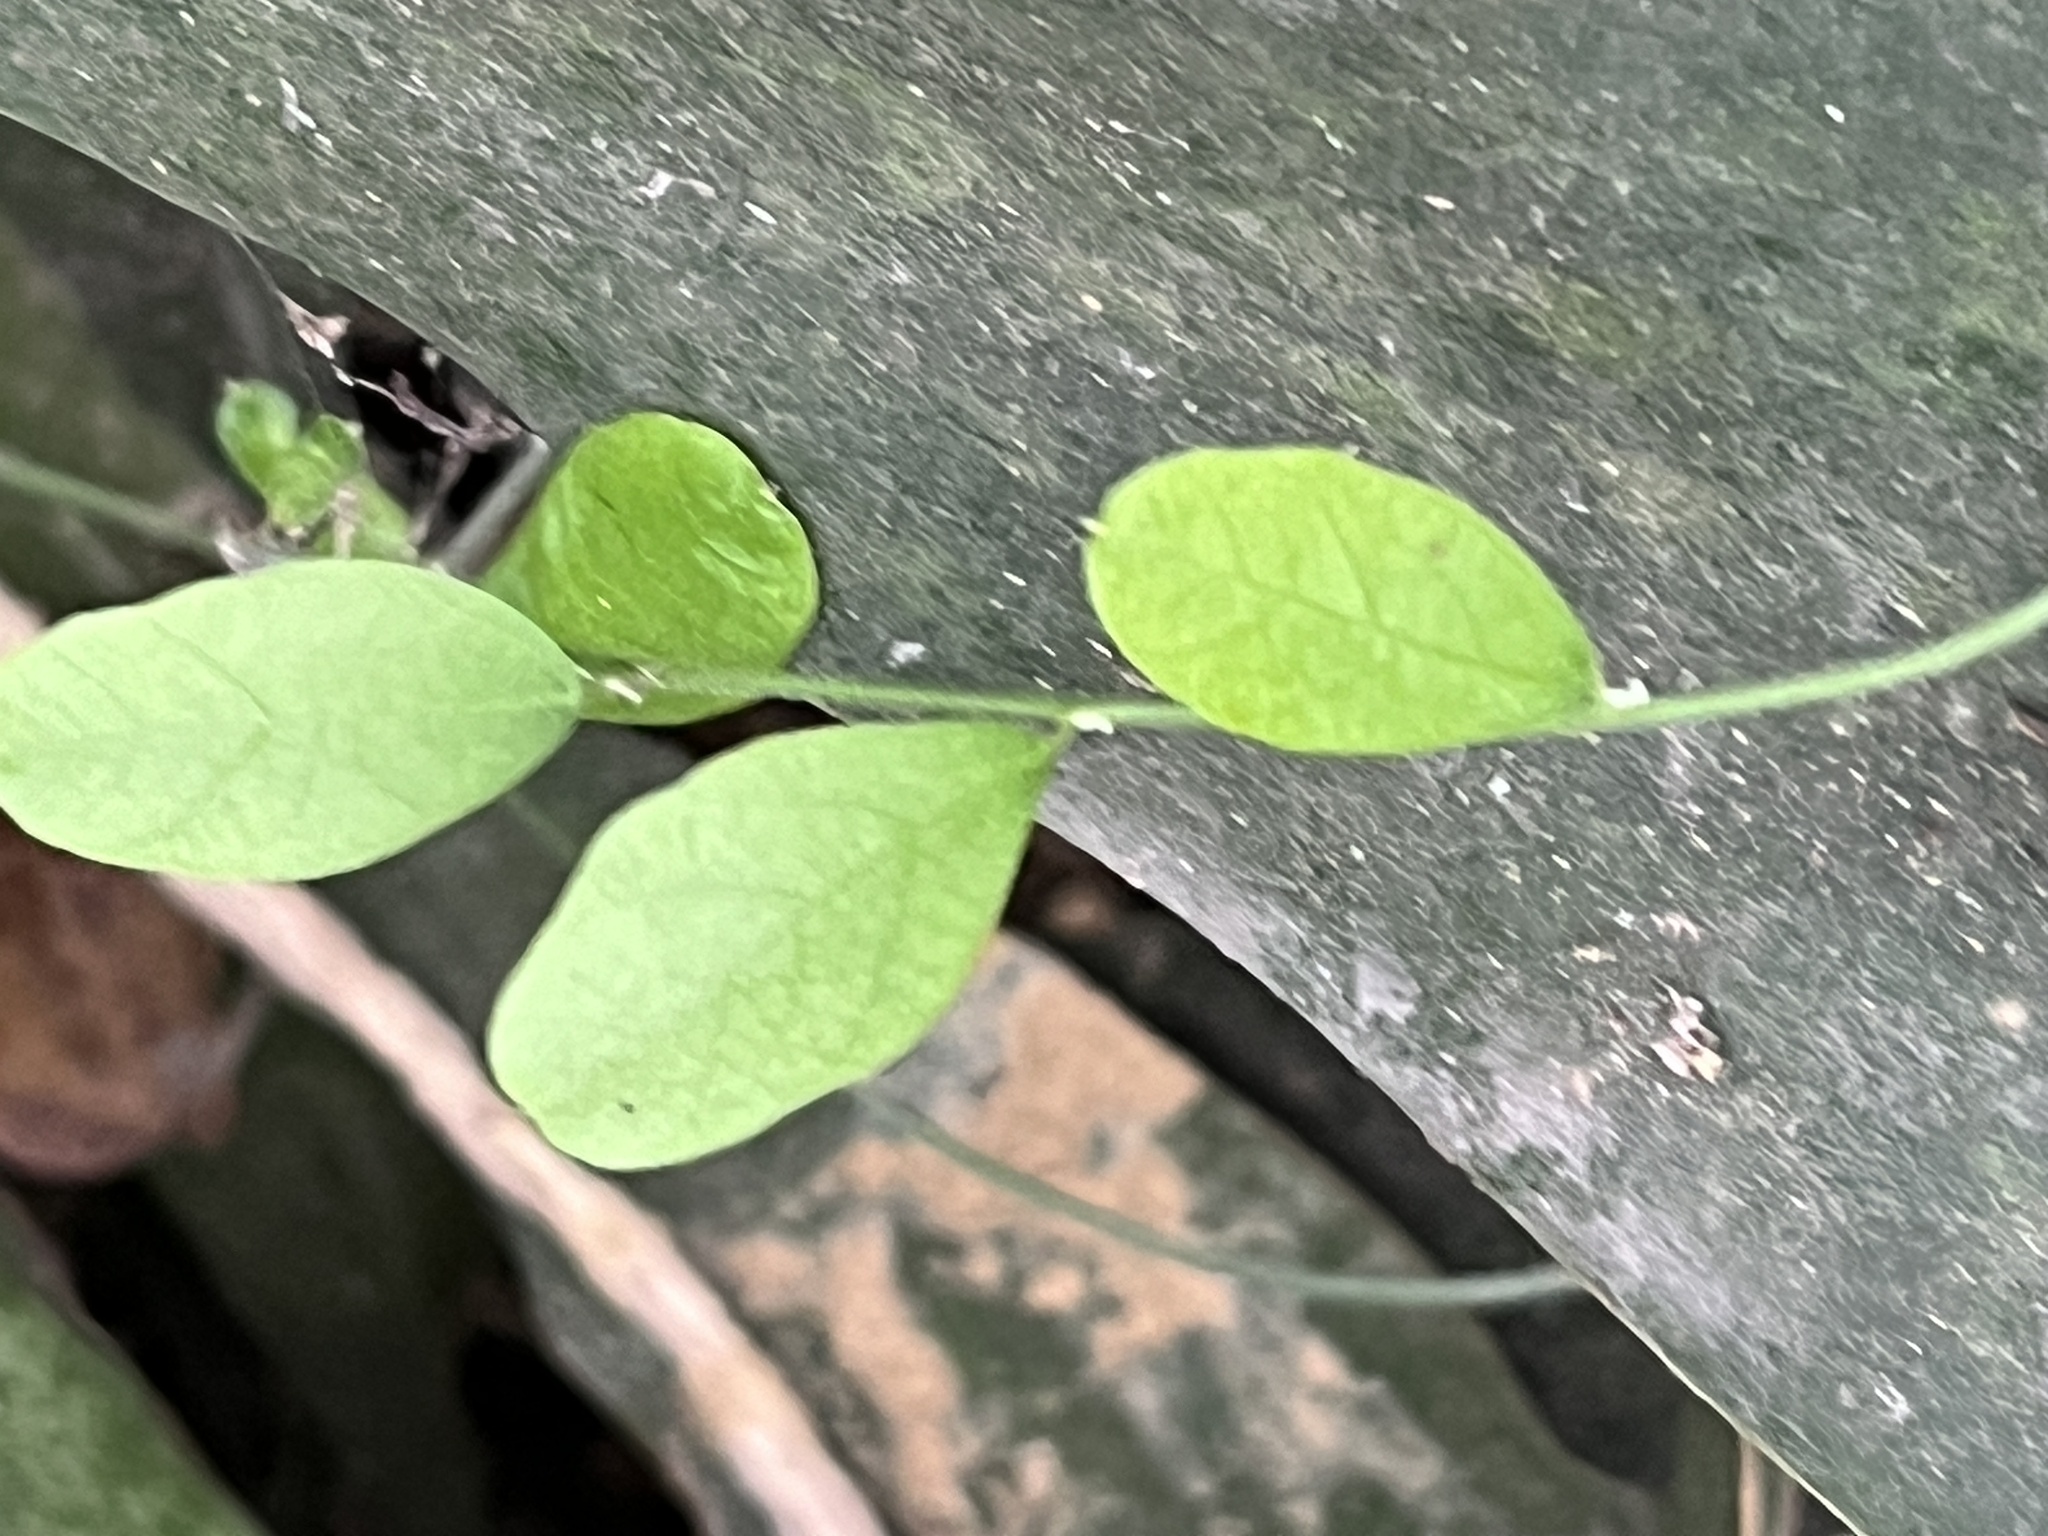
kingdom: Plantae
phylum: Tracheophyta
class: Magnoliopsida
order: Ranunculales
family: Menispermaceae
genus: Cocculus
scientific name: Cocculus orbiculatus
